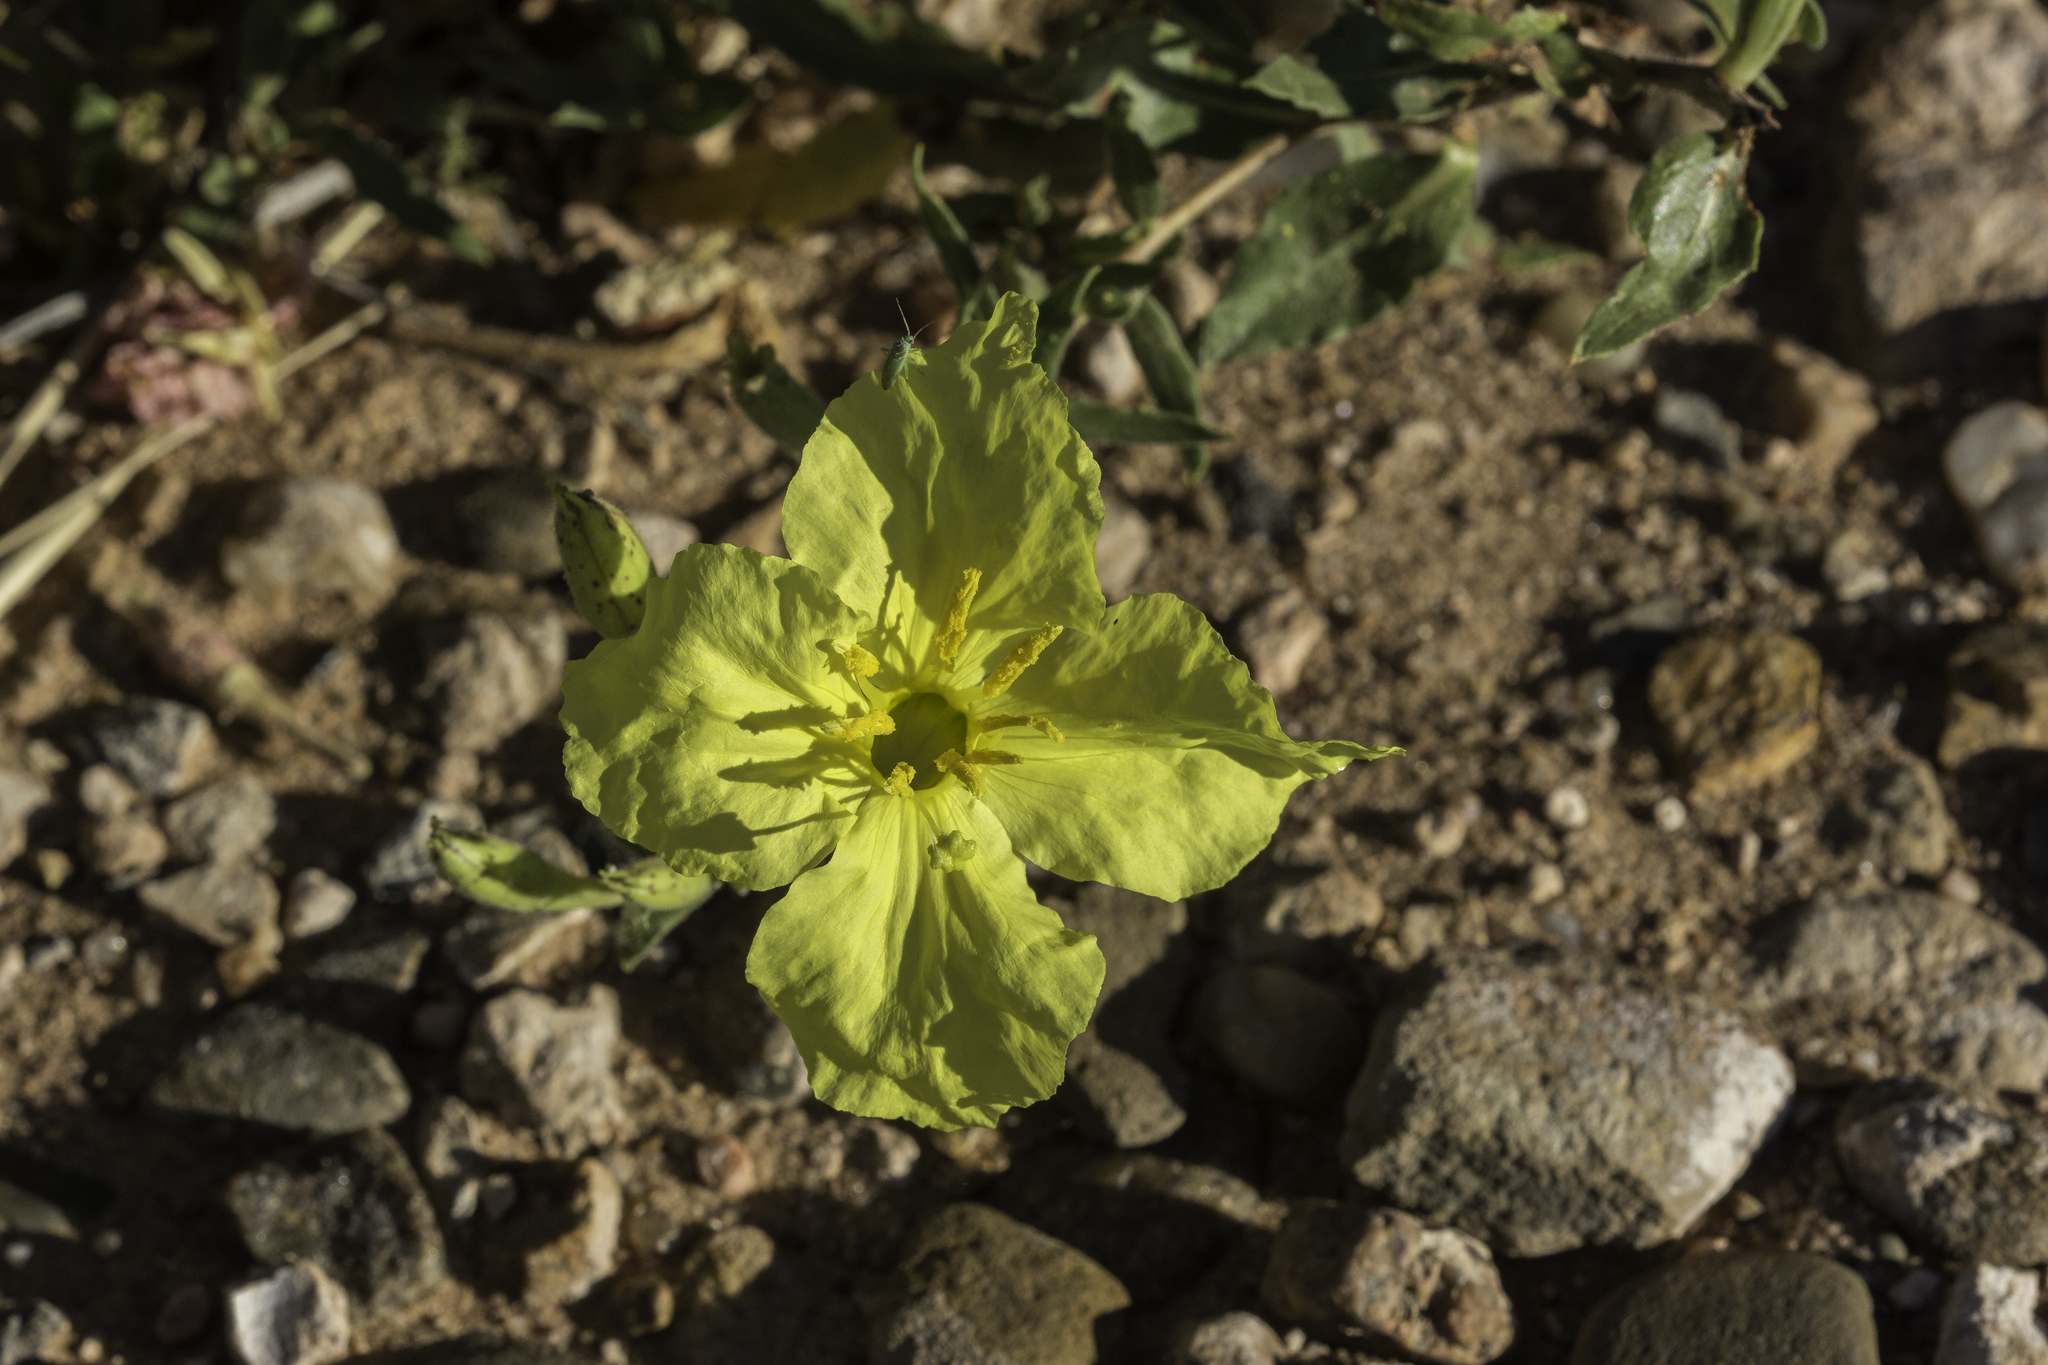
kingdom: Plantae
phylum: Tracheophyta
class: Magnoliopsida
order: Myrtales
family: Onagraceae
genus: Oenothera
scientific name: Oenothera hartwegii
